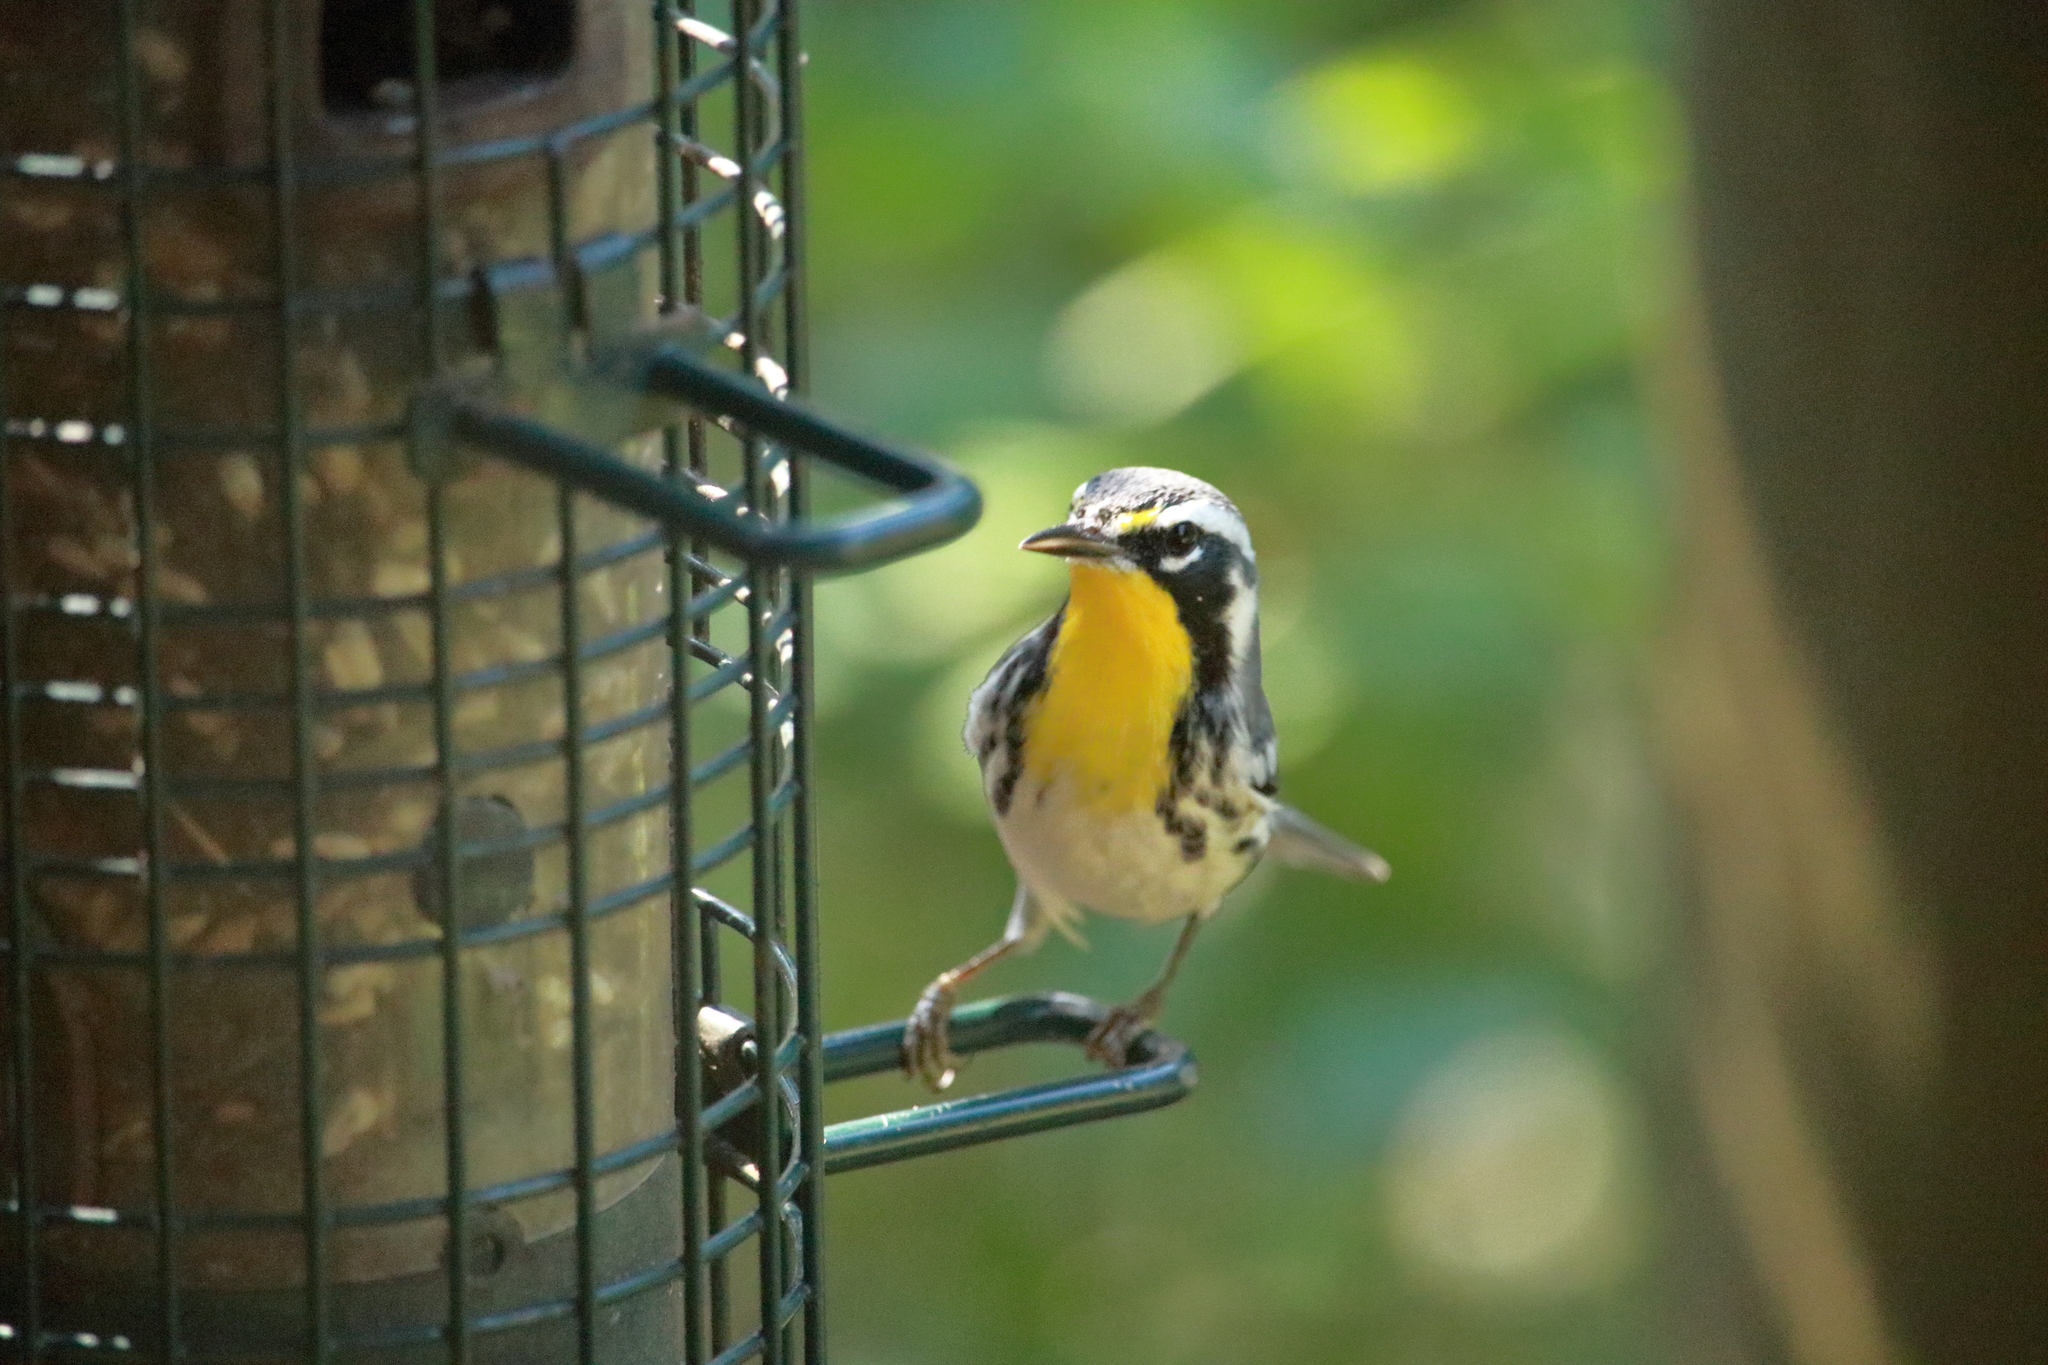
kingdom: Animalia
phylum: Chordata
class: Aves
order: Passeriformes
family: Parulidae
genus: Setophaga
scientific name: Setophaga dominica
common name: Yellow-throated warbler
